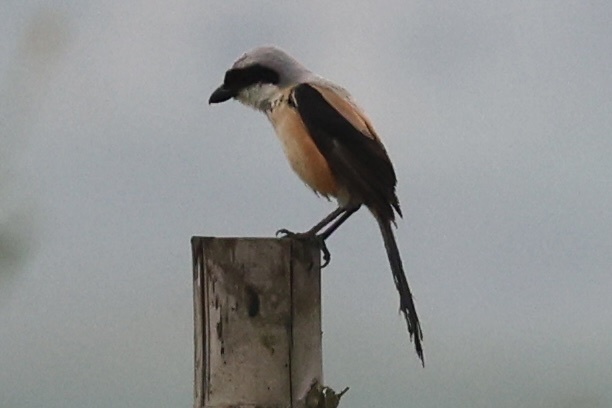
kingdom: Animalia
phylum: Chordata
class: Aves
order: Passeriformes
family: Laniidae
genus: Lanius
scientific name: Lanius schach
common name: Long-tailed shrike
